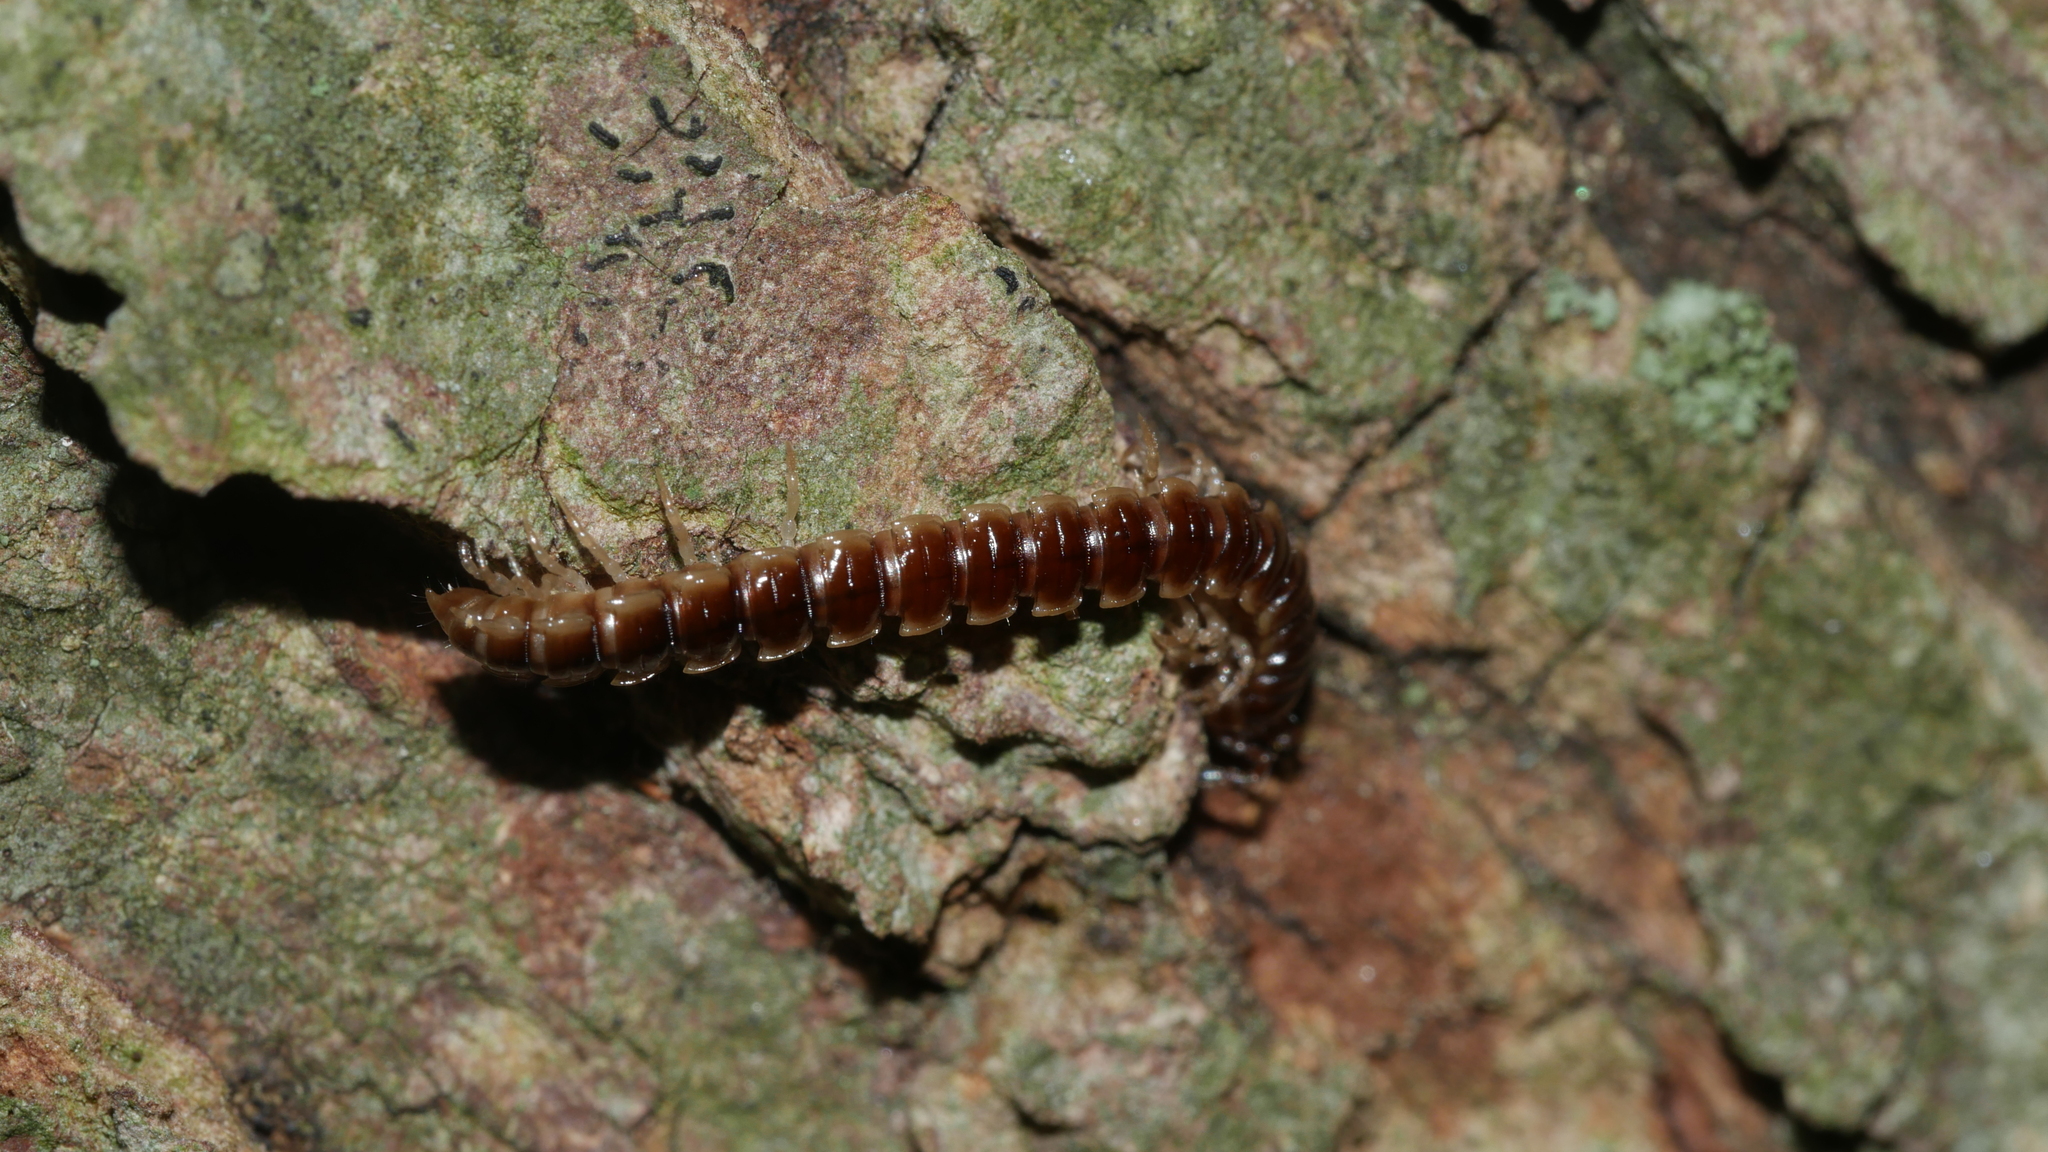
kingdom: Animalia
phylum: Arthropoda
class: Diplopoda
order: Polydesmida
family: Paradoxosomatidae
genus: Oxidus
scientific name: Oxidus gracilis
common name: Greenhouse millipede
